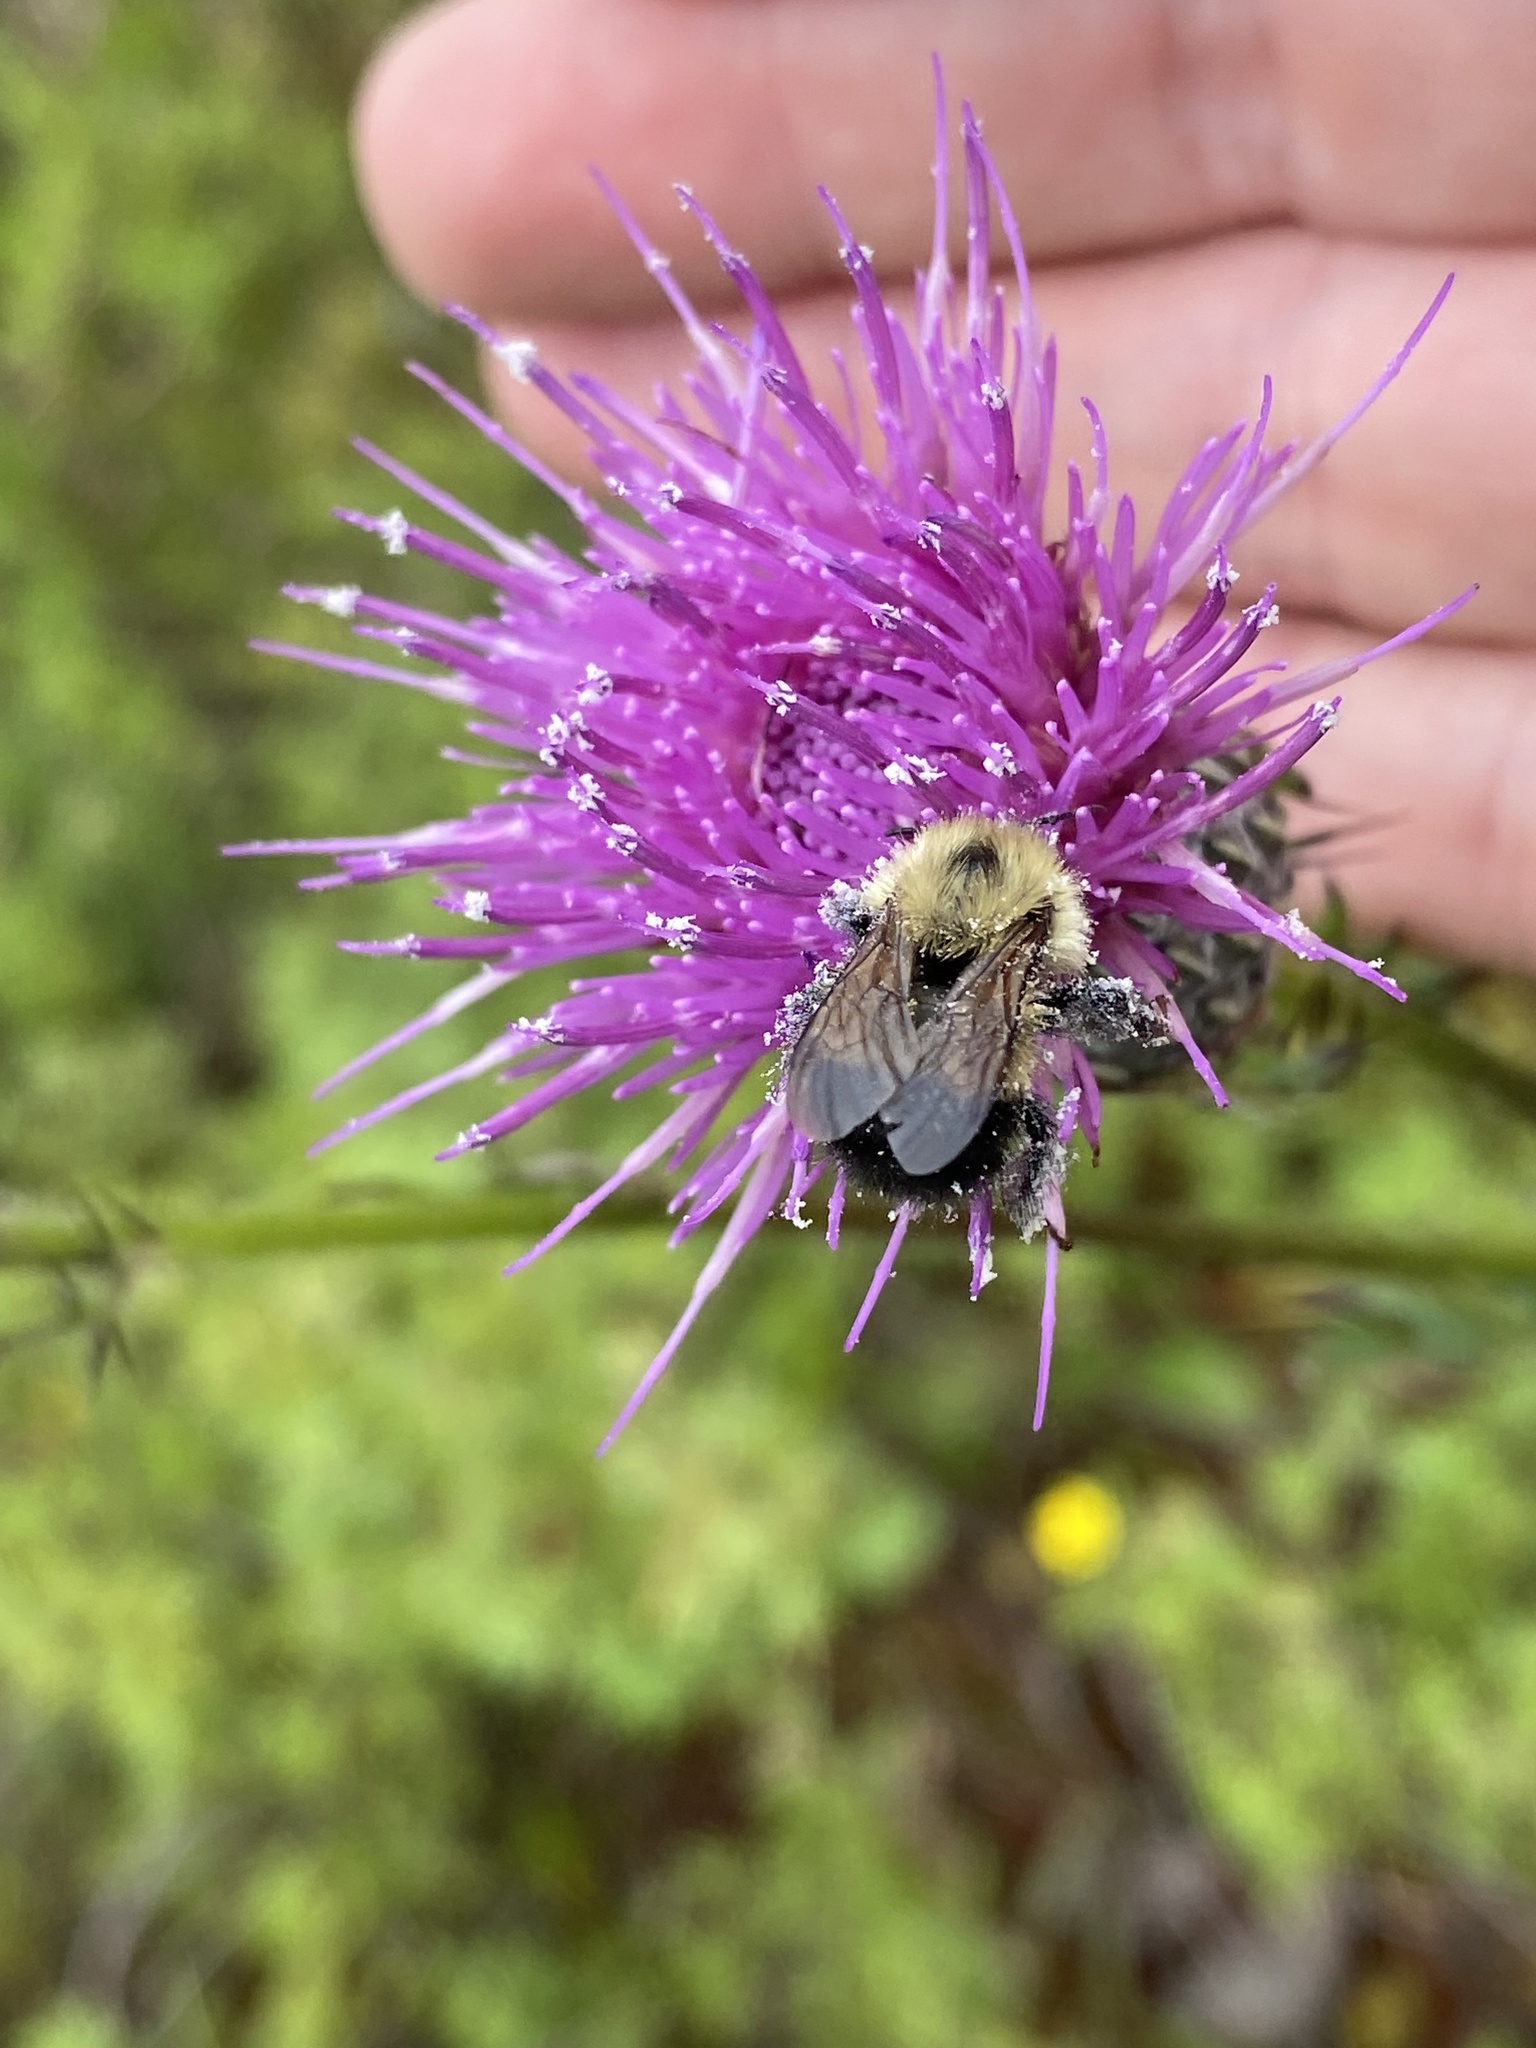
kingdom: Animalia
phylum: Arthropoda
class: Insecta
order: Hymenoptera
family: Apidae
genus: Pyrobombus
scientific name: Pyrobombus
